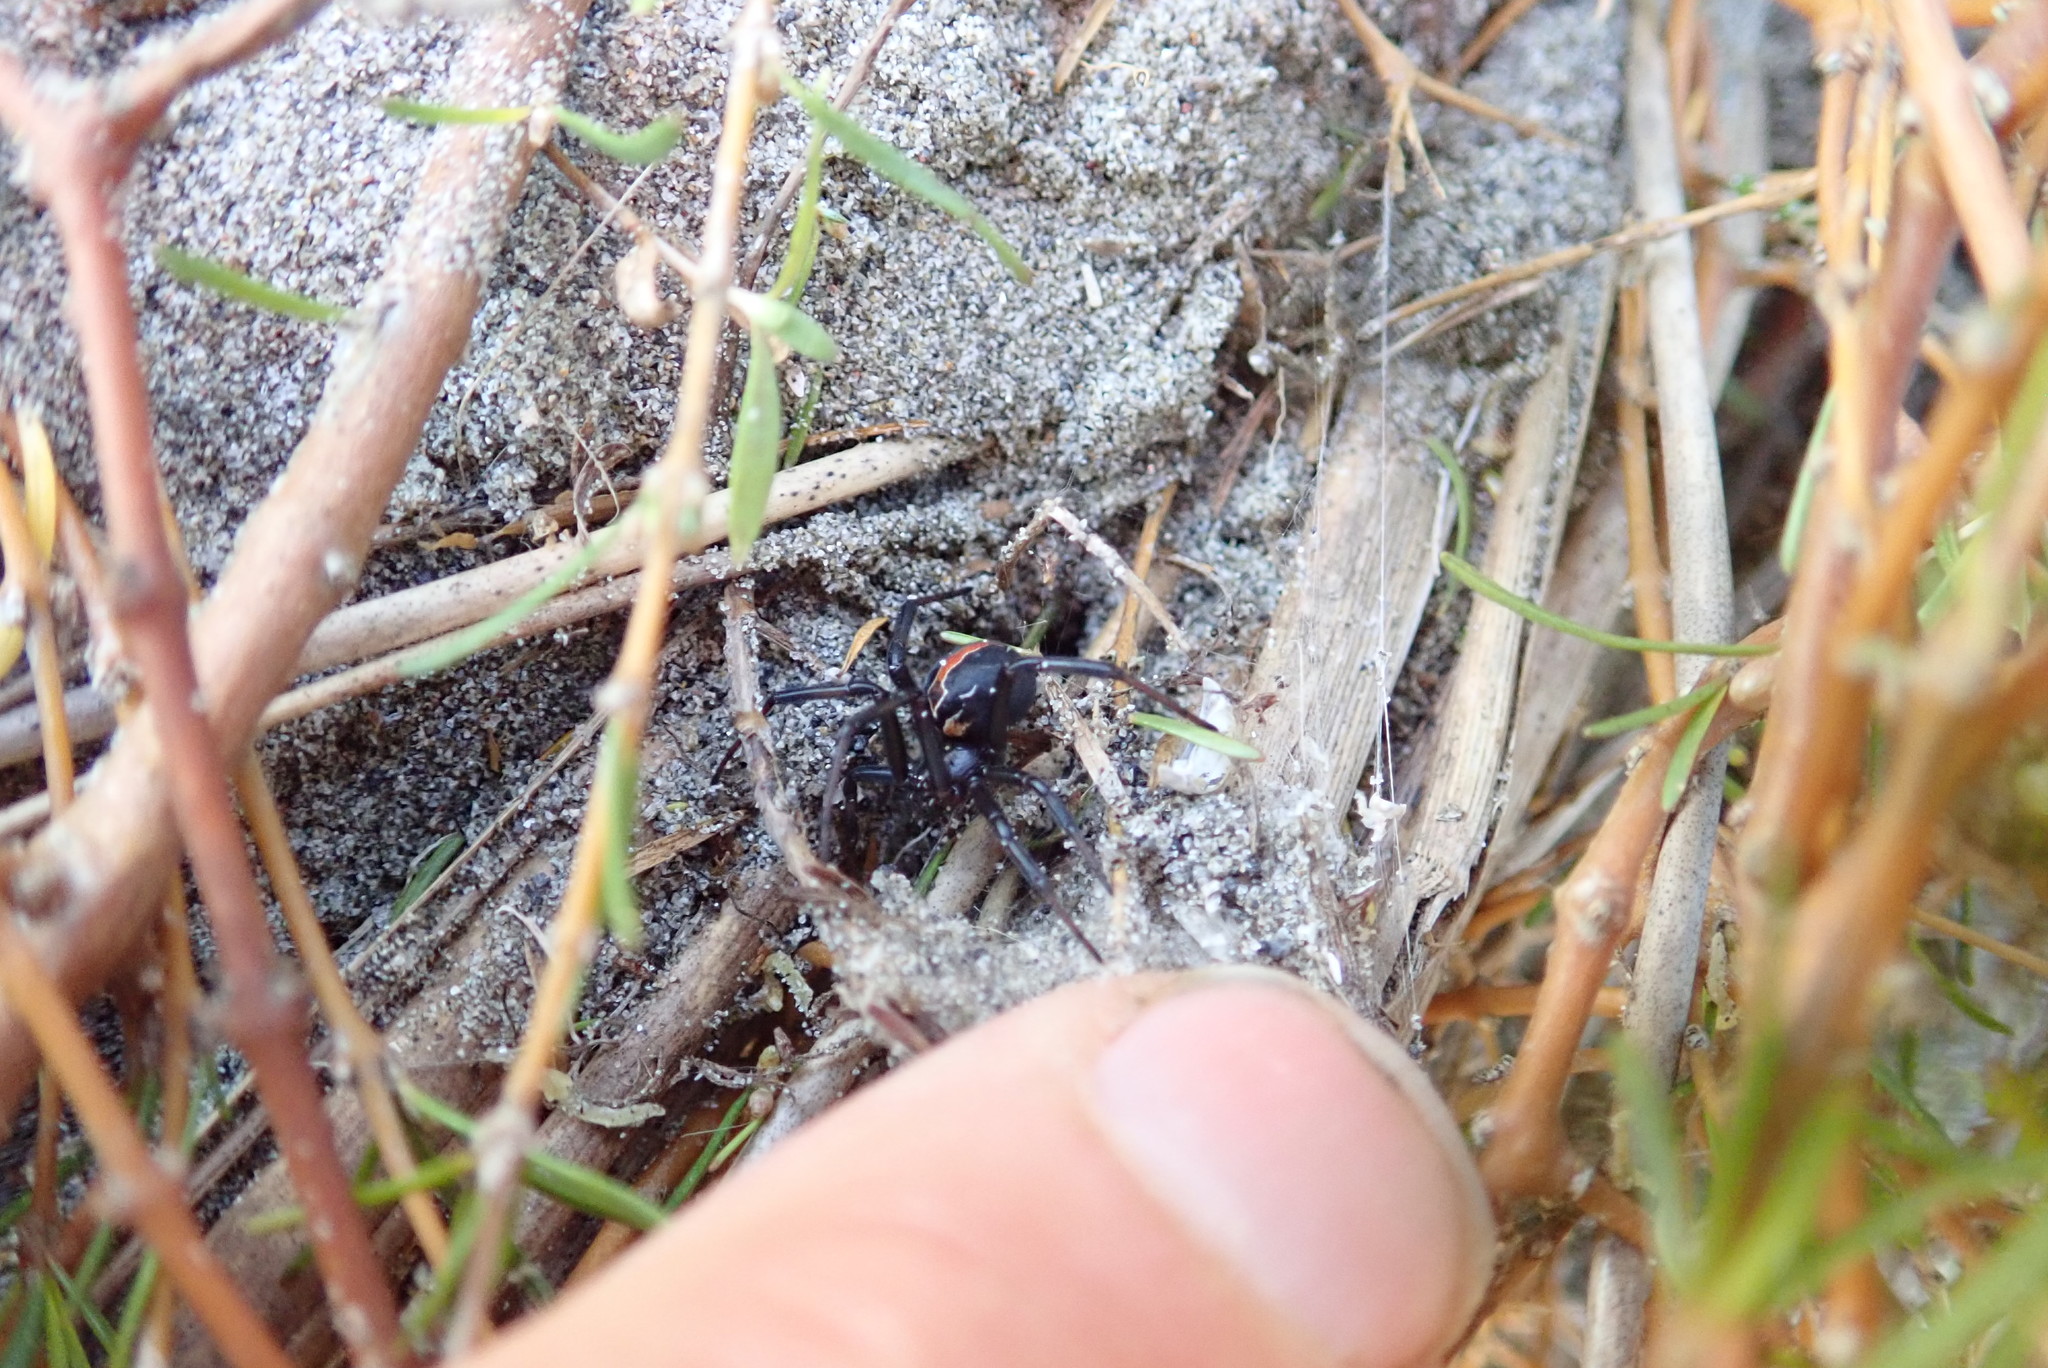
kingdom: Animalia
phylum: Arthropoda
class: Arachnida
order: Araneae
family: Theridiidae
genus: Latrodectus
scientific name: Latrodectus katipo
